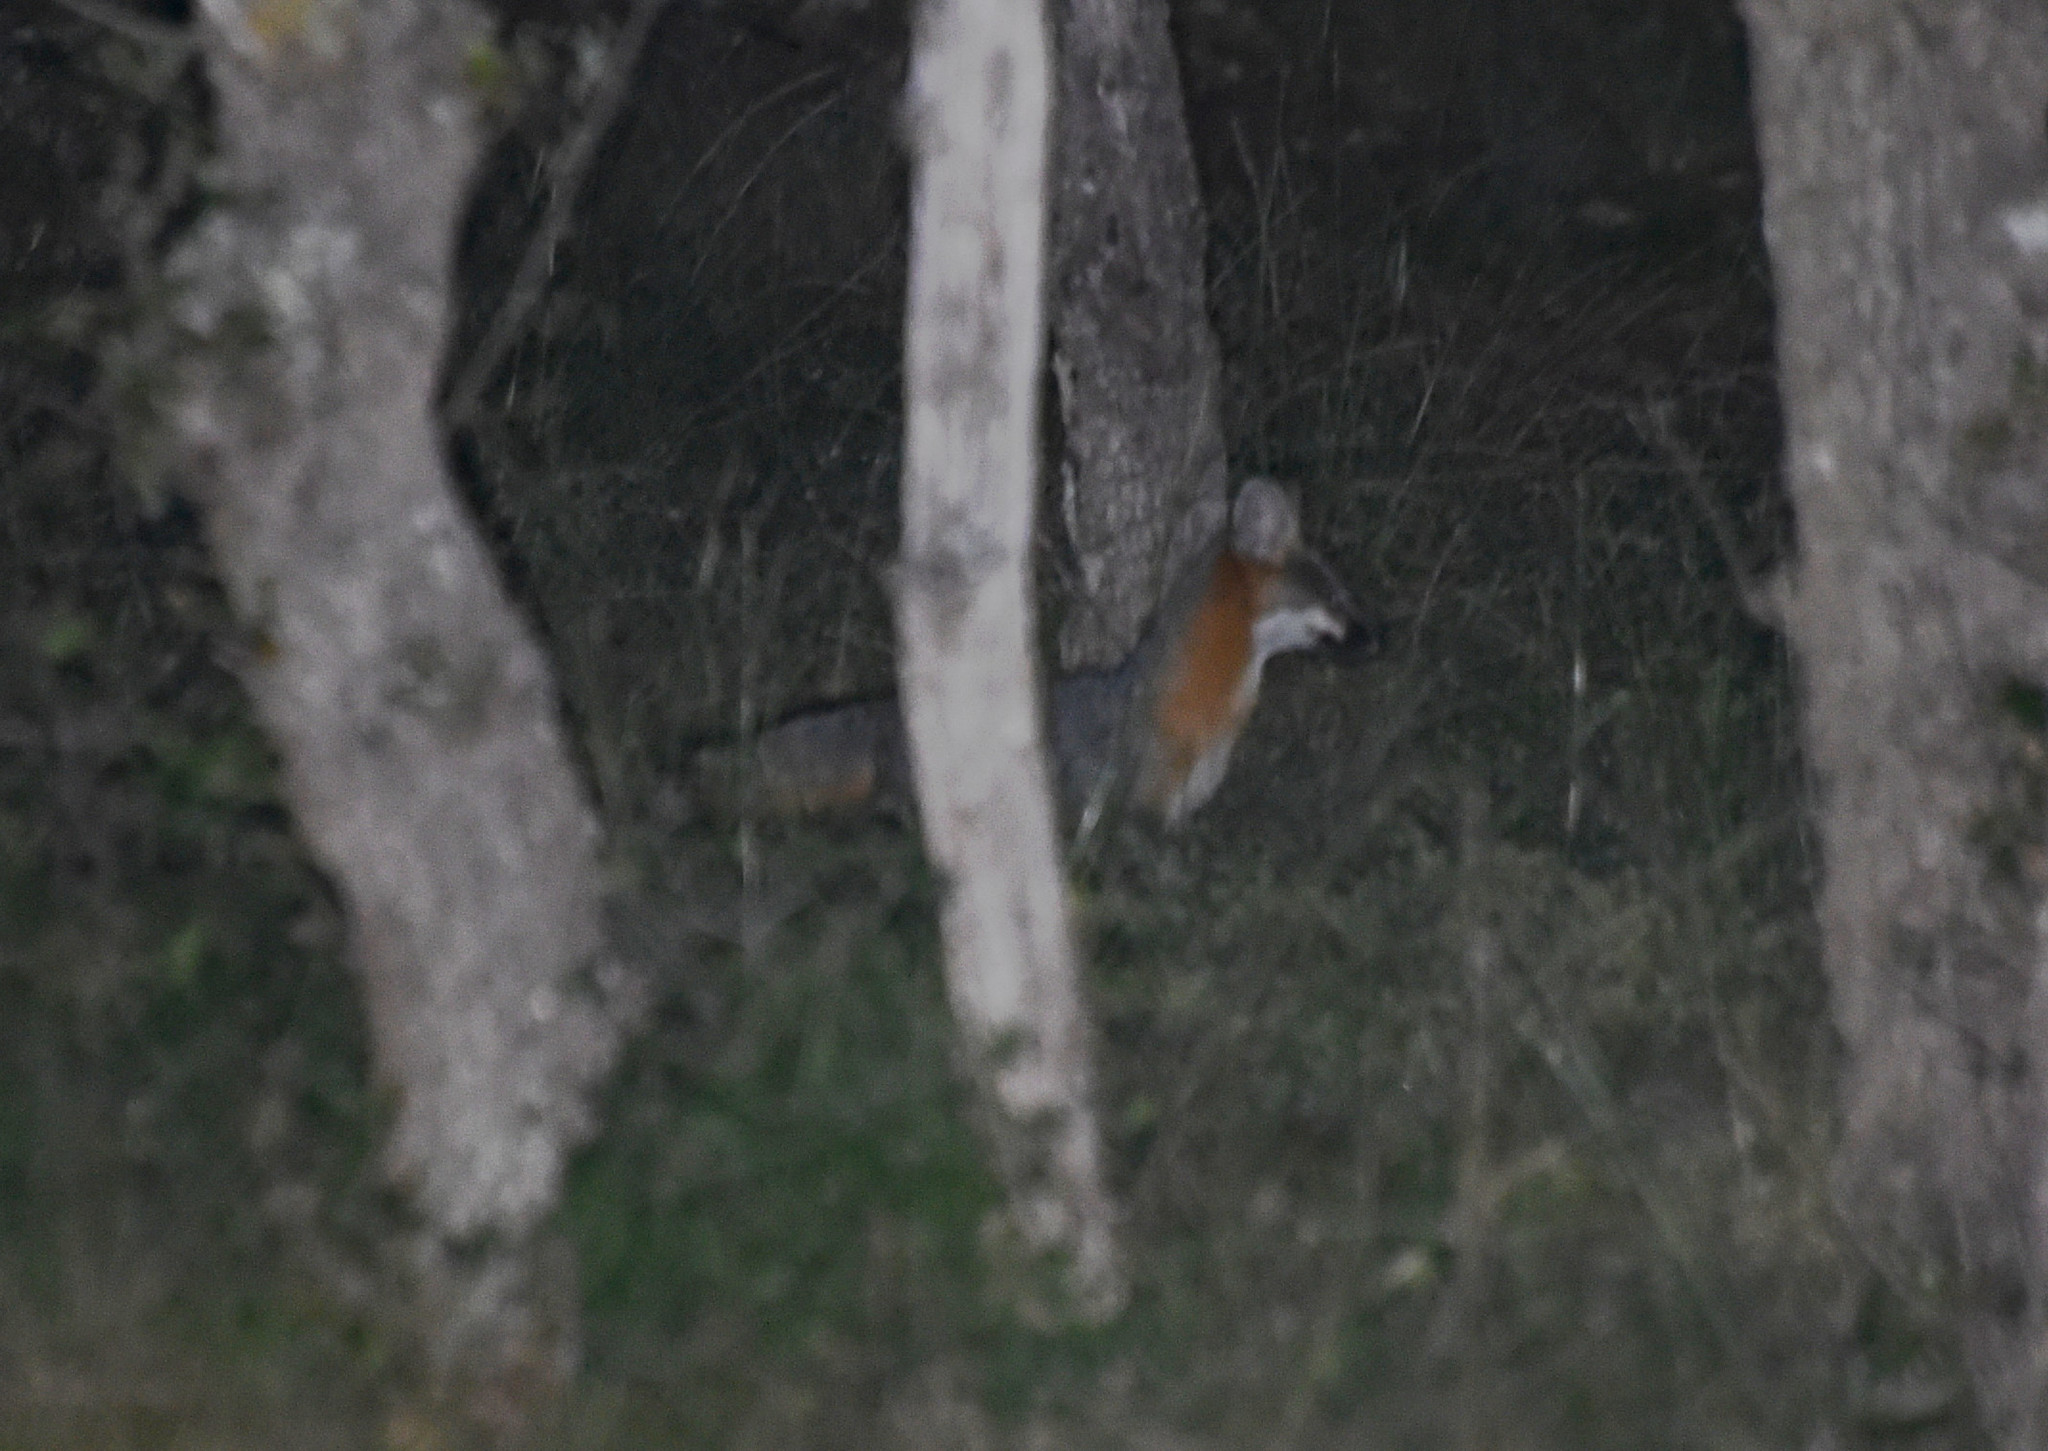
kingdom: Animalia
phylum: Chordata
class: Mammalia
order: Carnivora
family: Canidae
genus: Urocyon
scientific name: Urocyon cinereoargenteus
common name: Gray fox
